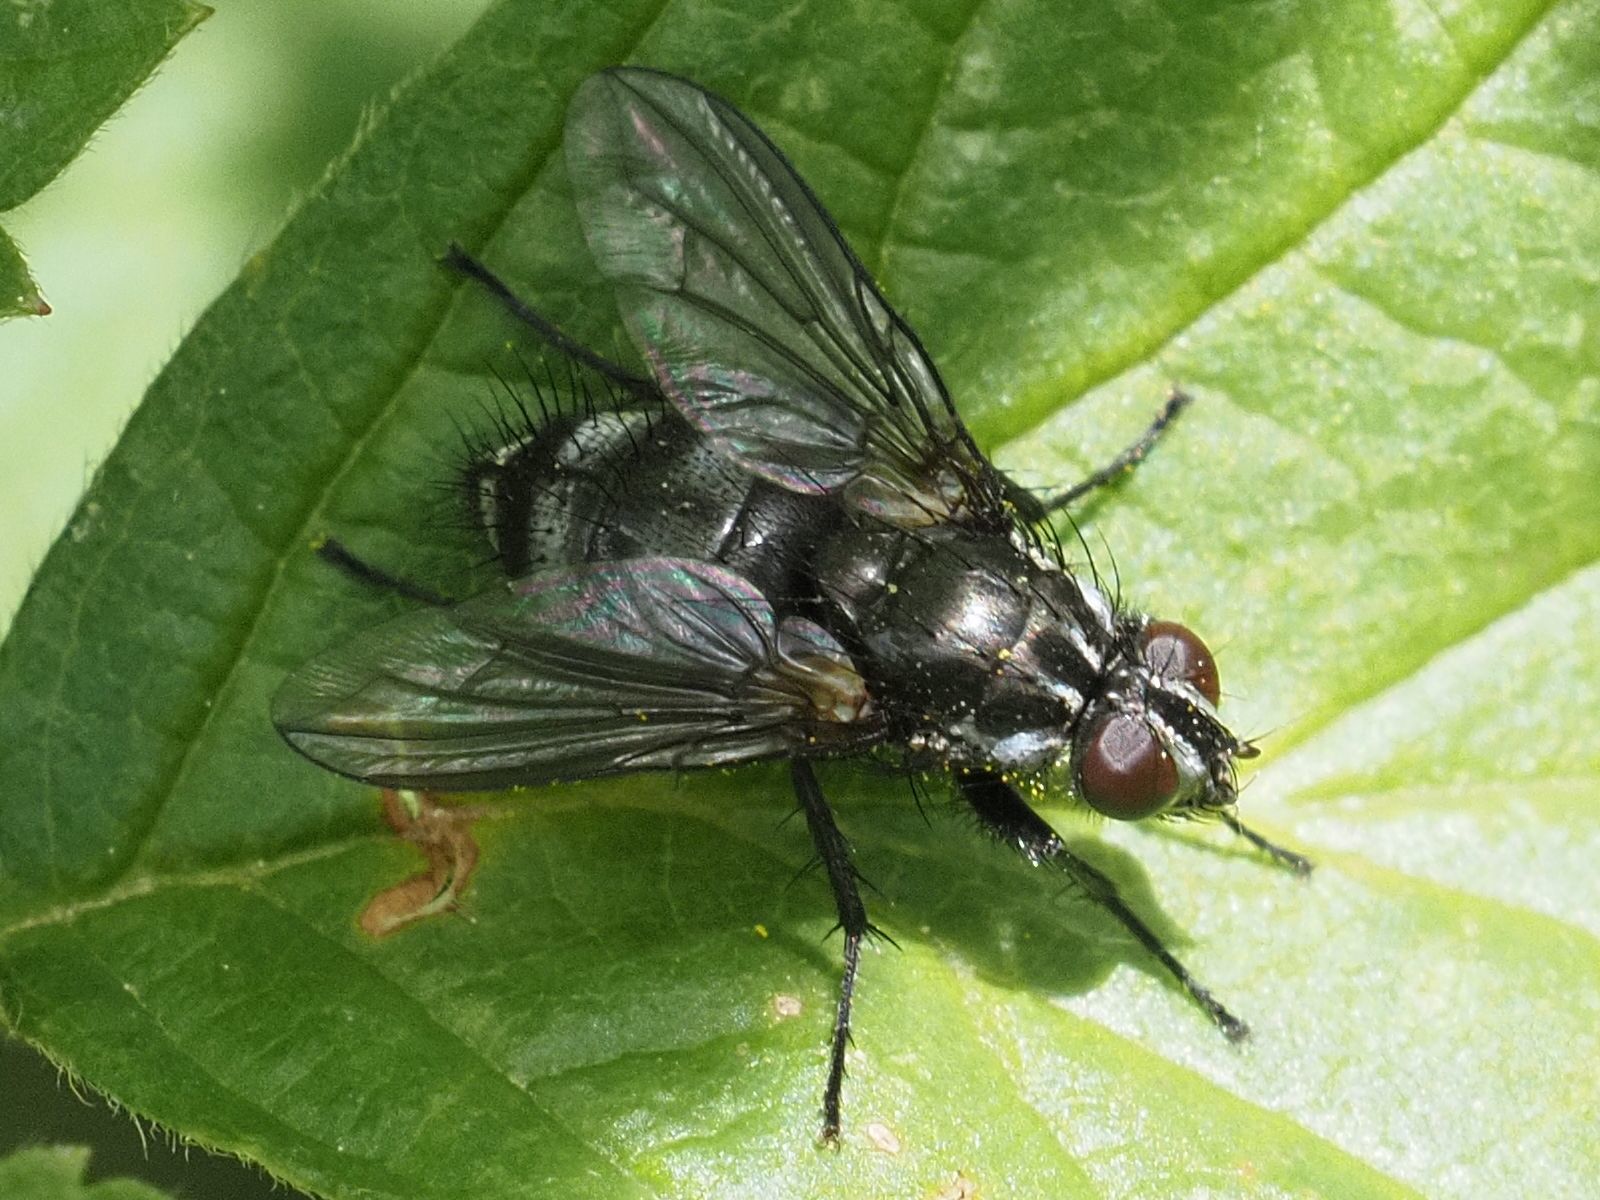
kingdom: Animalia
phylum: Arthropoda
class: Insecta
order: Diptera
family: Calliphoridae
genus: Rhinomorinia
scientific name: Rhinomorinia sarcophagina
